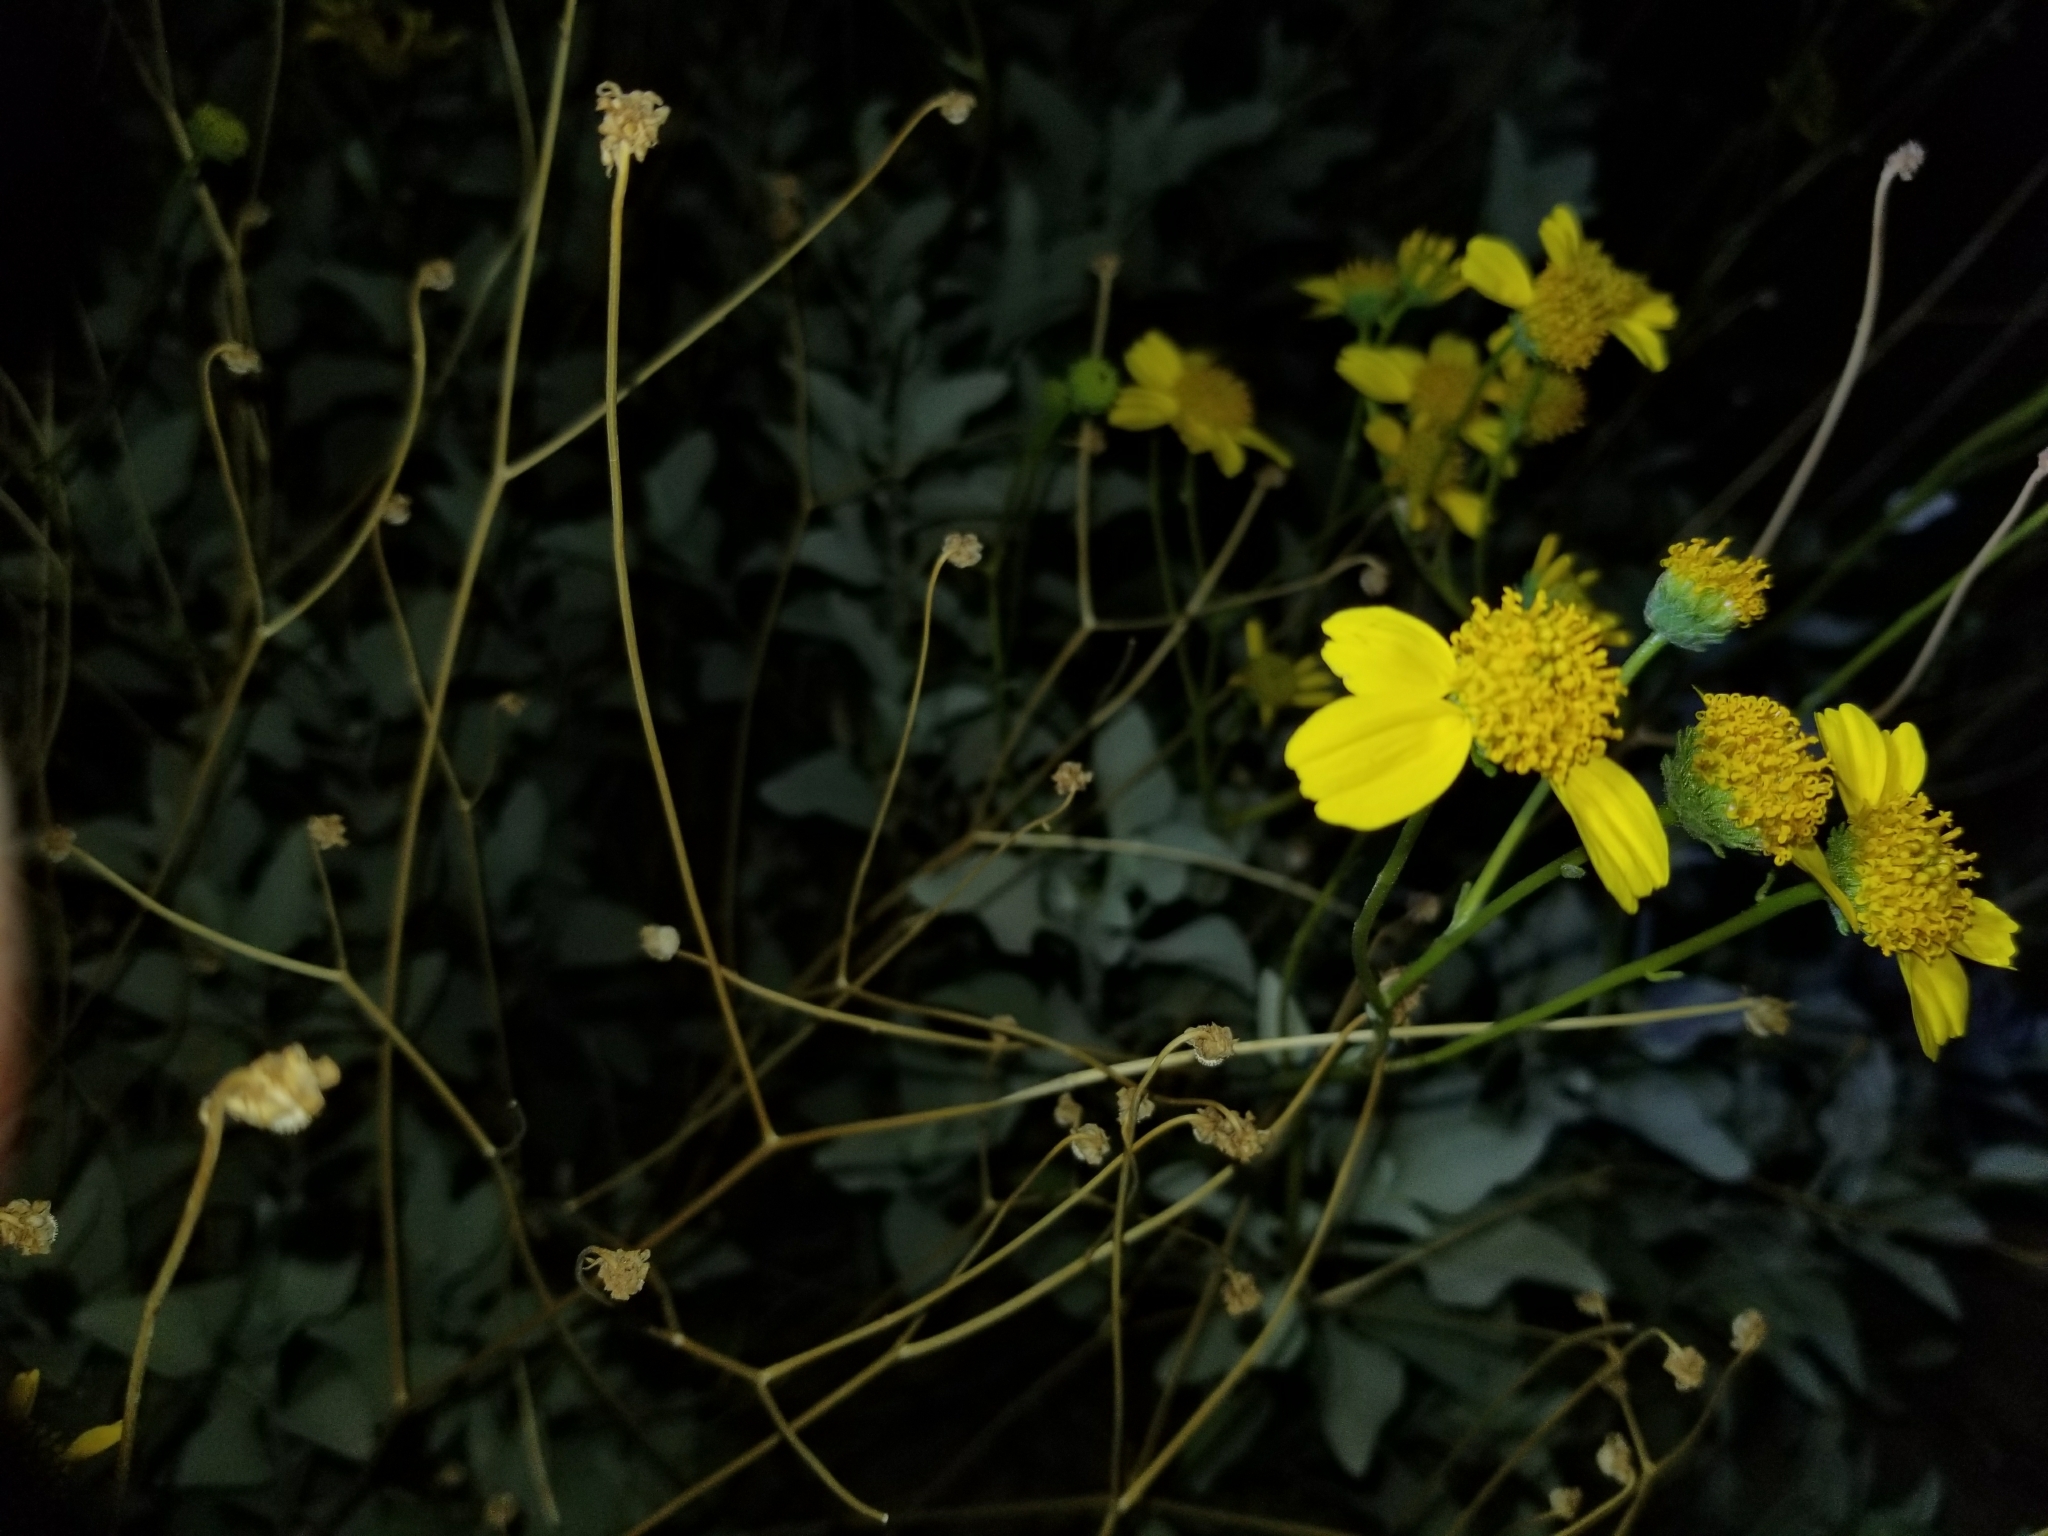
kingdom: Plantae
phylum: Tracheophyta
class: Magnoliopsida
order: Asterales
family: Asteraceae
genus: Encelia
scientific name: Encelia farinosa
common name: Brittlebush
